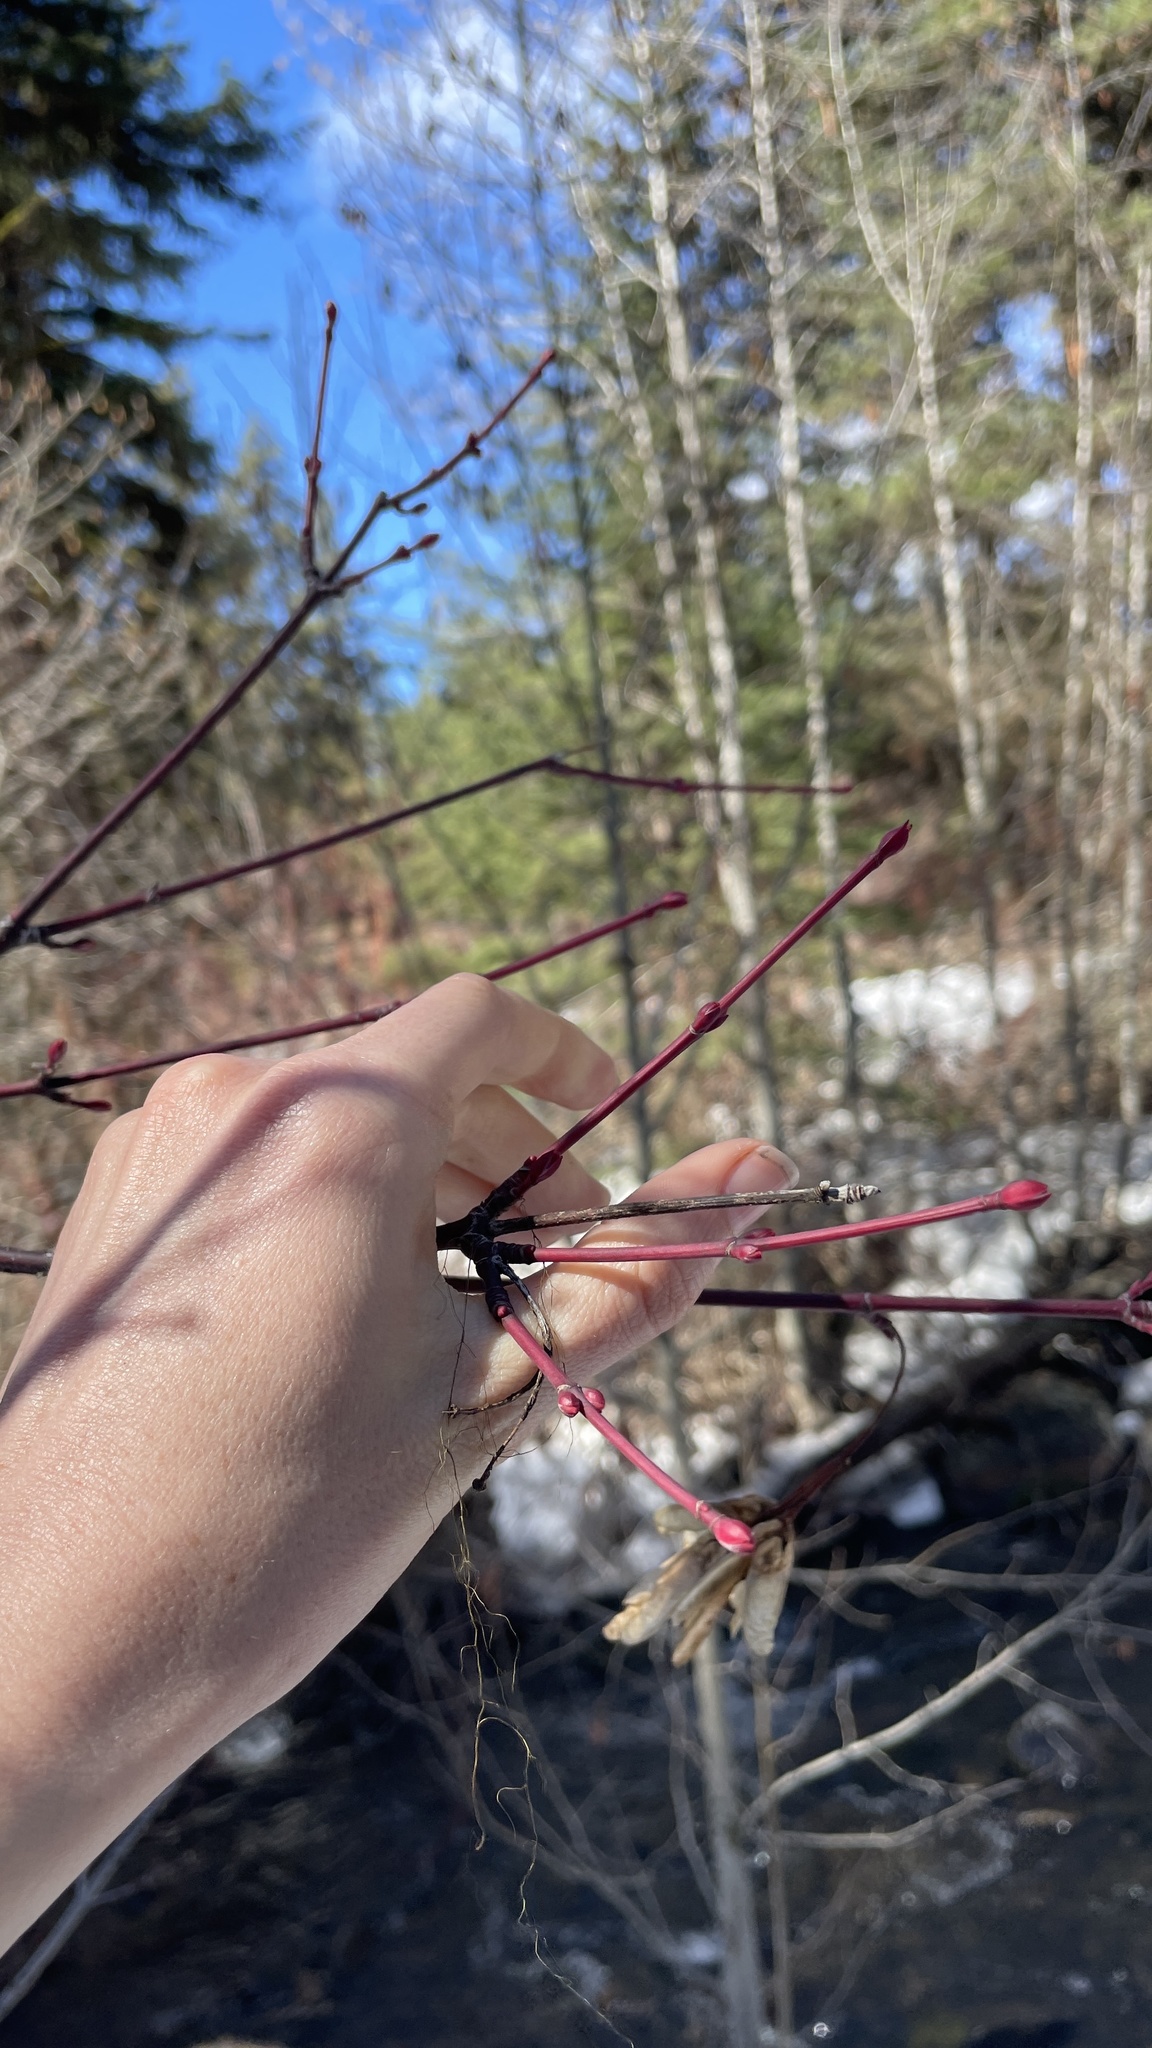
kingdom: Plantae
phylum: Tracheophyta
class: Magnoliopsida
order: Sapindales
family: Sapindaceae
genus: Acer
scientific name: Acer negundo
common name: Ashleaf maple
